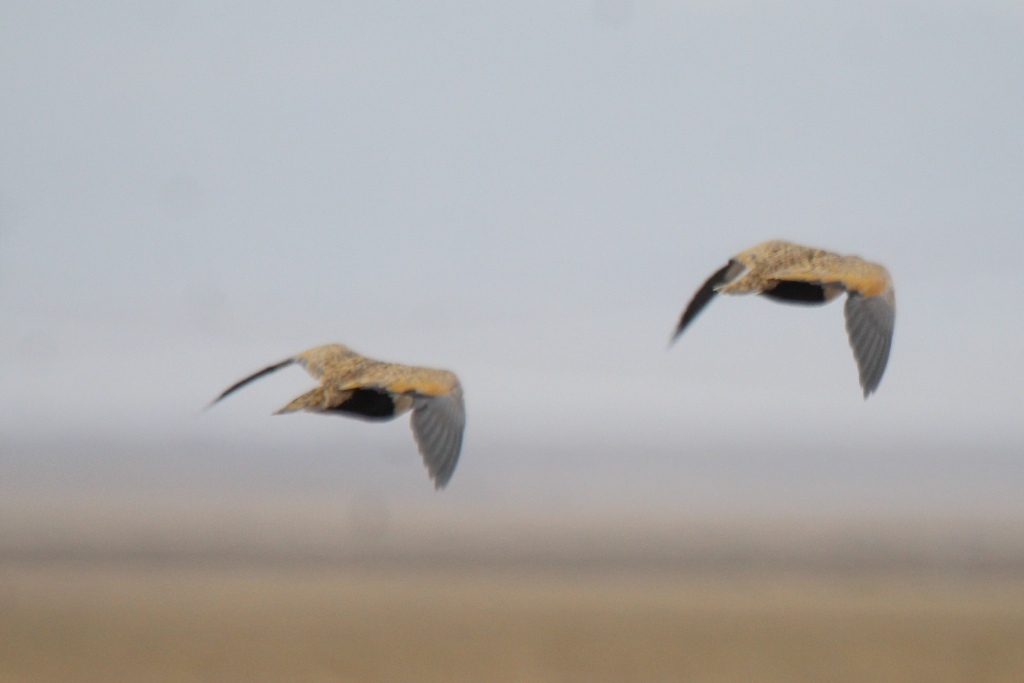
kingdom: Animalia
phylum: Chordata
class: Aves
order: Pteroclidiformes
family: Pteroclididae
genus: Pterocles
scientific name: Pterocles orientalis
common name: Black-bellied sandgrouse
